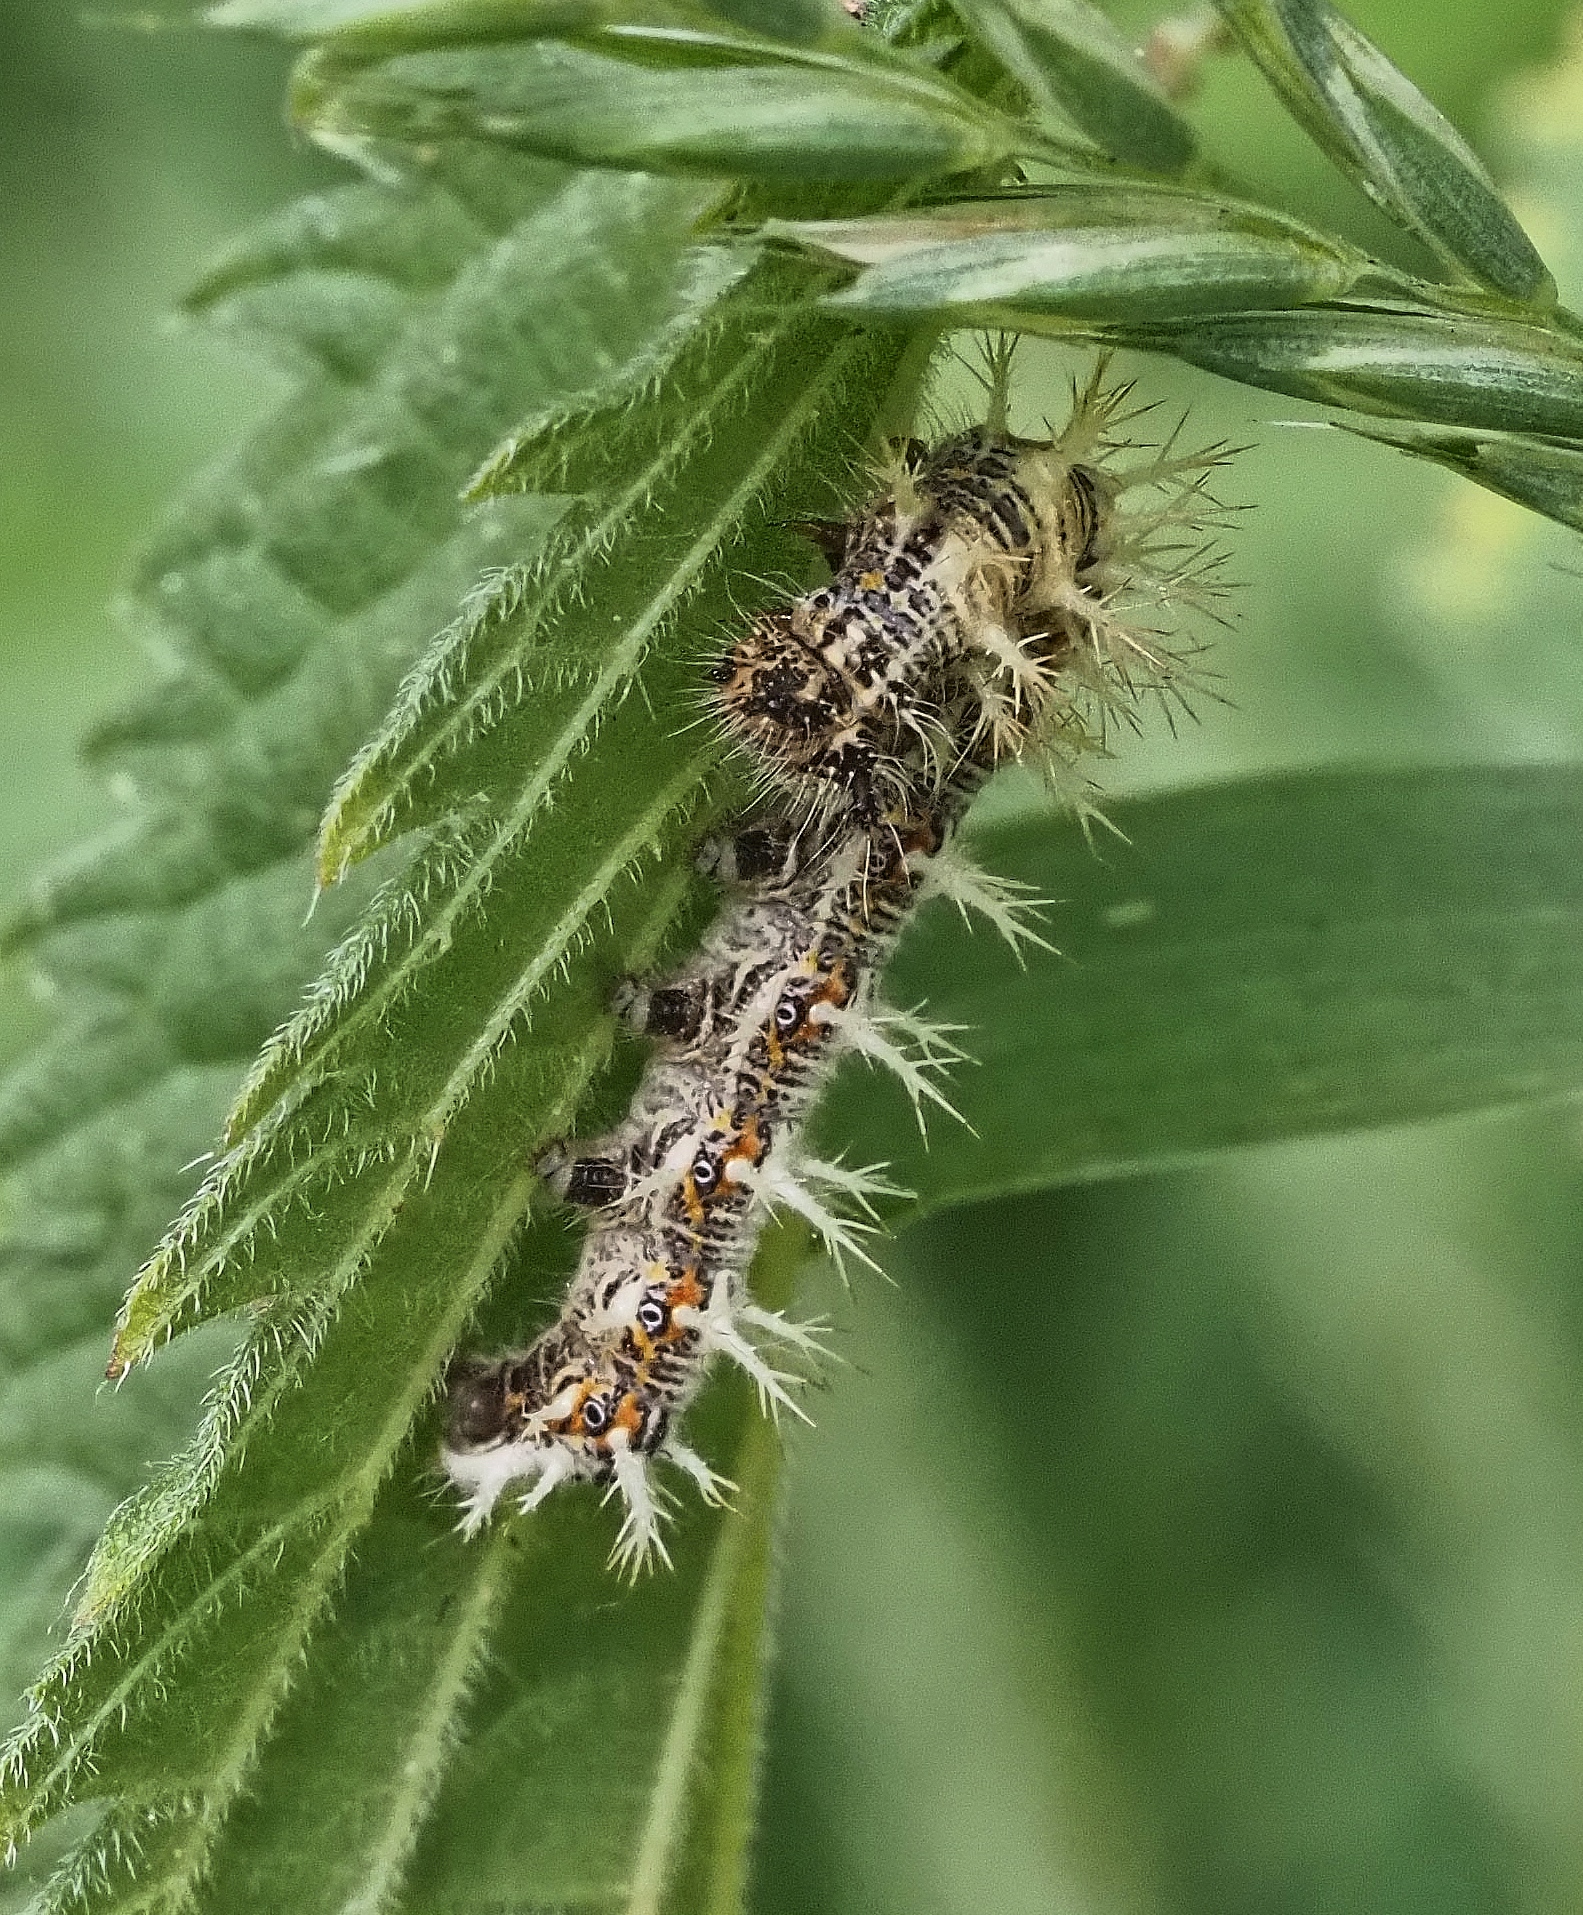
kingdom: Animalia
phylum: Arthropoda
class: Insecta
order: Lepidoptera
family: Nymphalidae
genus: Polygonia
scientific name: Polygonia c-album
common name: Comma
